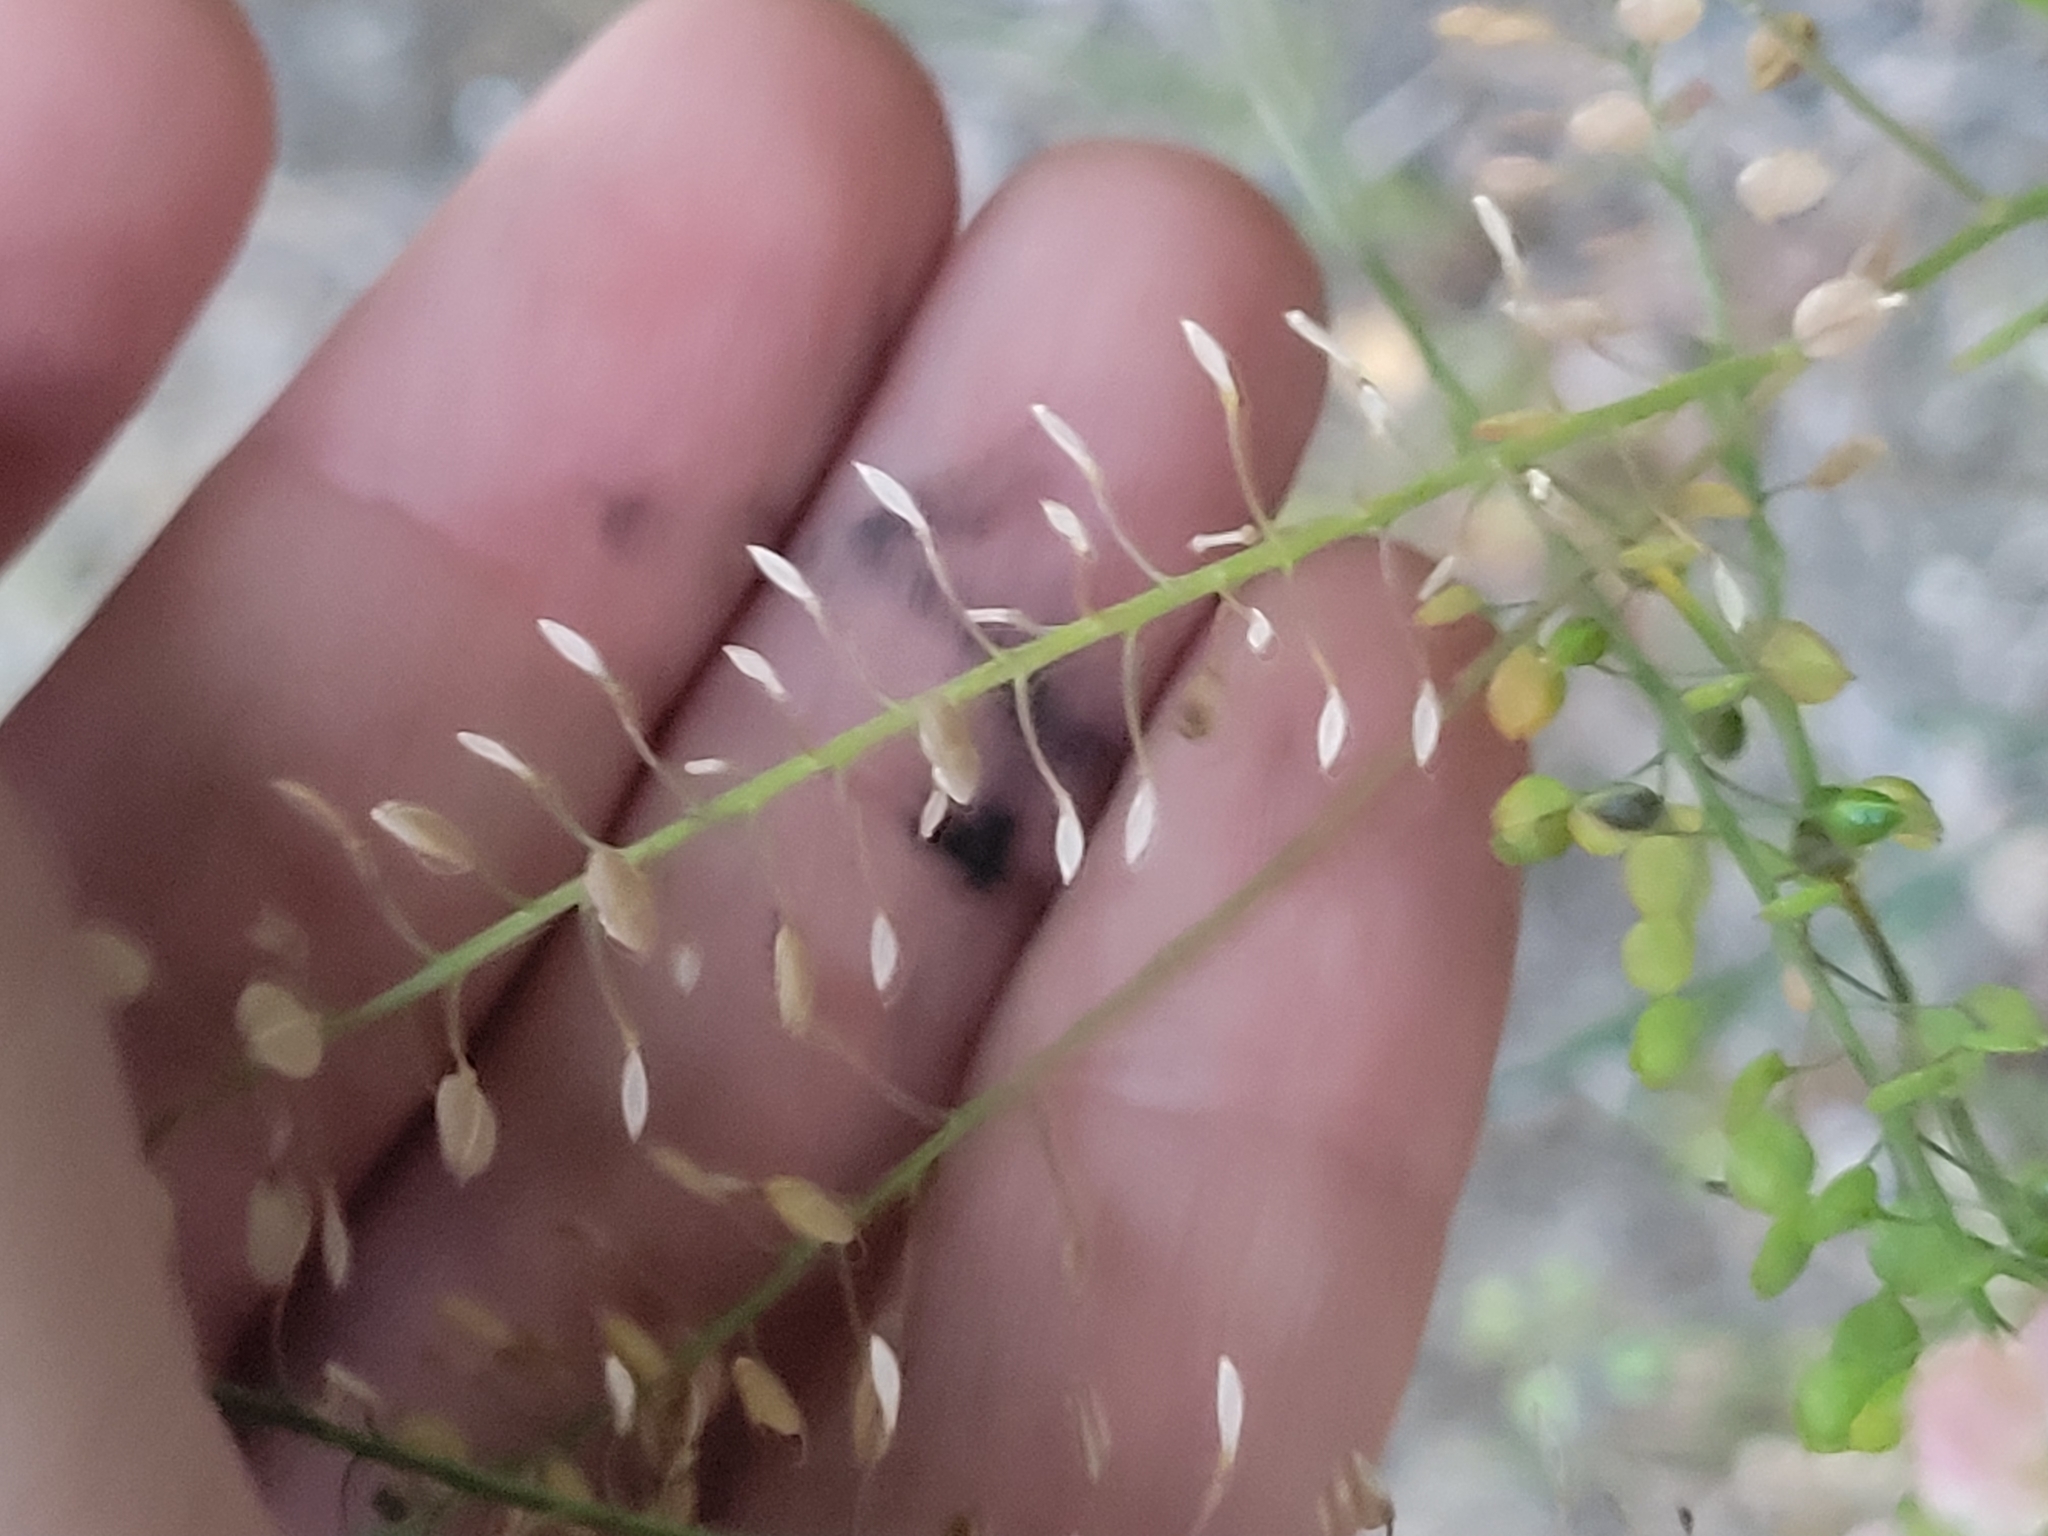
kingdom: Plantae
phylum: Tracheophyta
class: Magnoliopsida
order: Brassicales
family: Brassicaceae
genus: Lepidium
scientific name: Lepidium virginicum
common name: Least pepperwort
